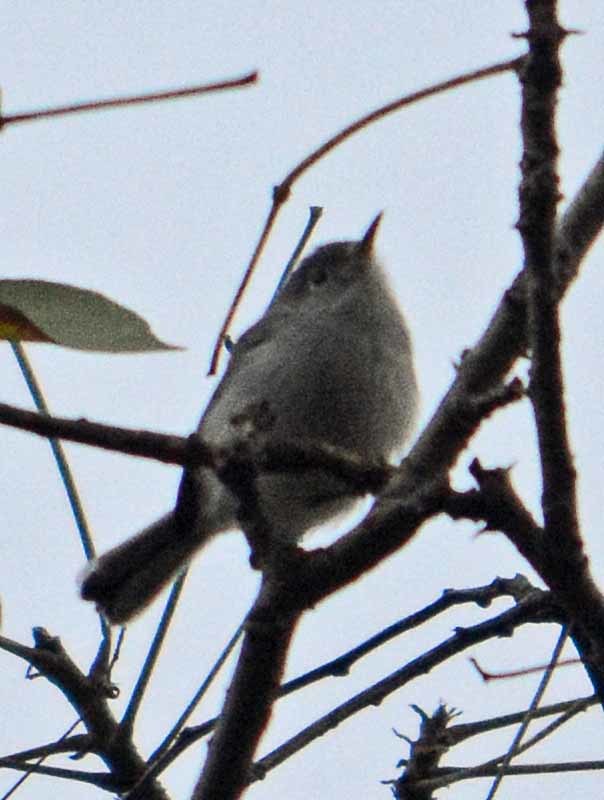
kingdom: Animalia
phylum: Chordata
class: Aves
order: Passeriformes
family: Polioptilidae
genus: Polioptila
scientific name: Polioptila caerulea
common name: Blue-gray gnatcatcher
